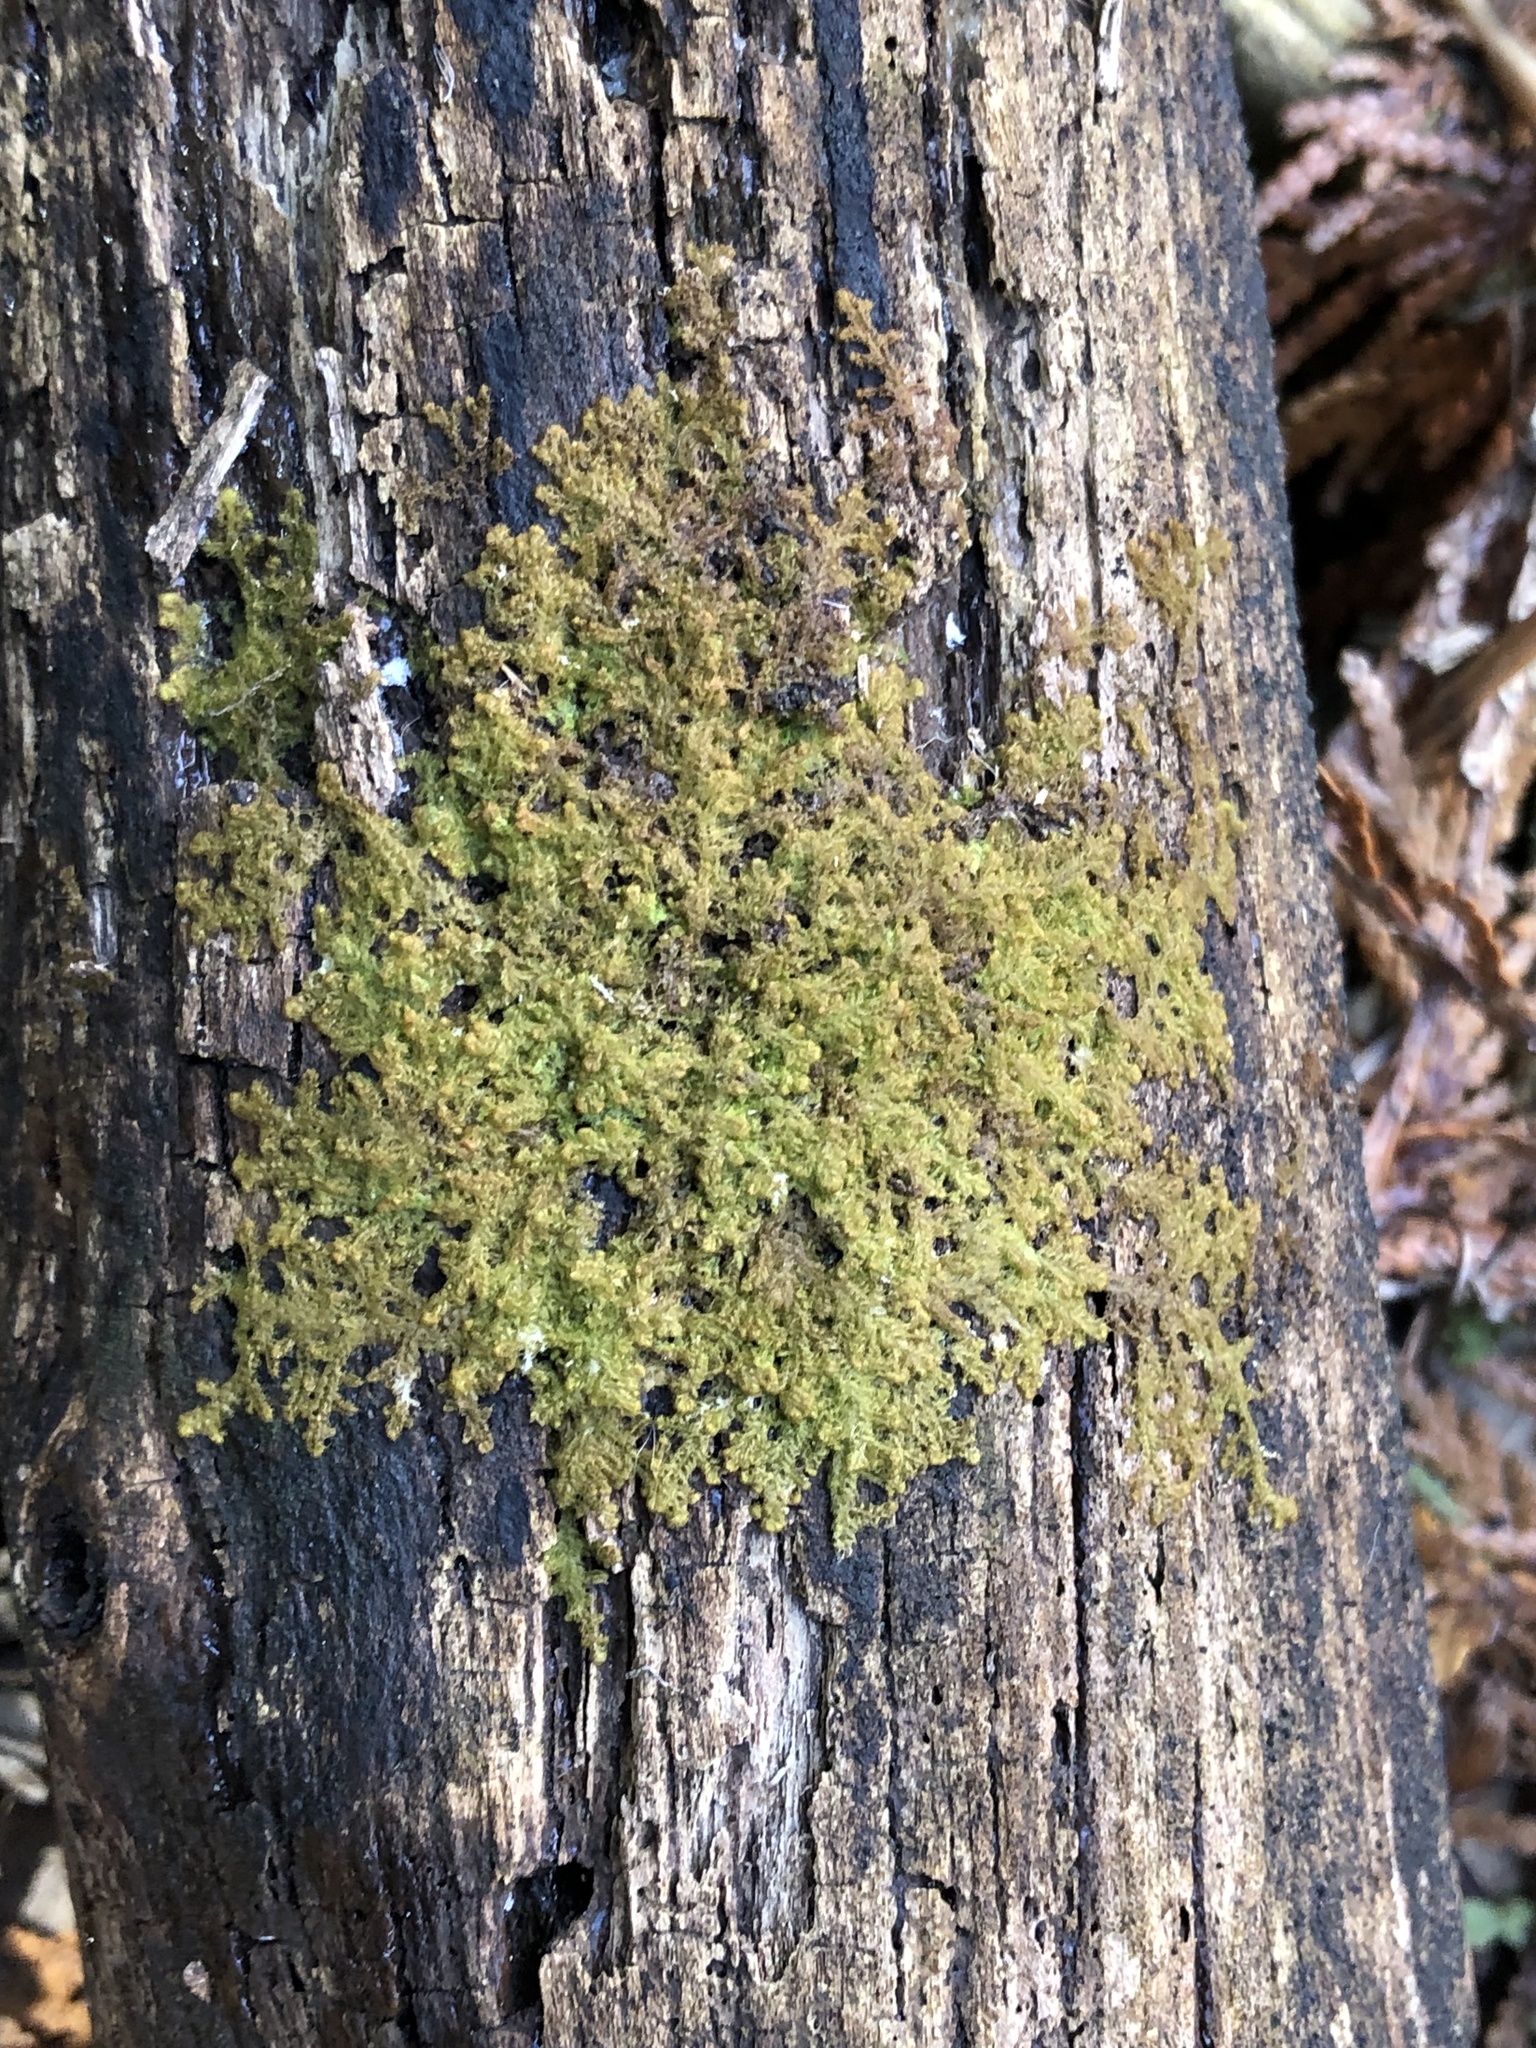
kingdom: Plantae
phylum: Marchantiophyta
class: Jungermanniopsida
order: Ptilidiales
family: Ptilidiaceae
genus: Ptilidium
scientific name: Ptilidium pulcherrimum
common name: Tree fringewort
